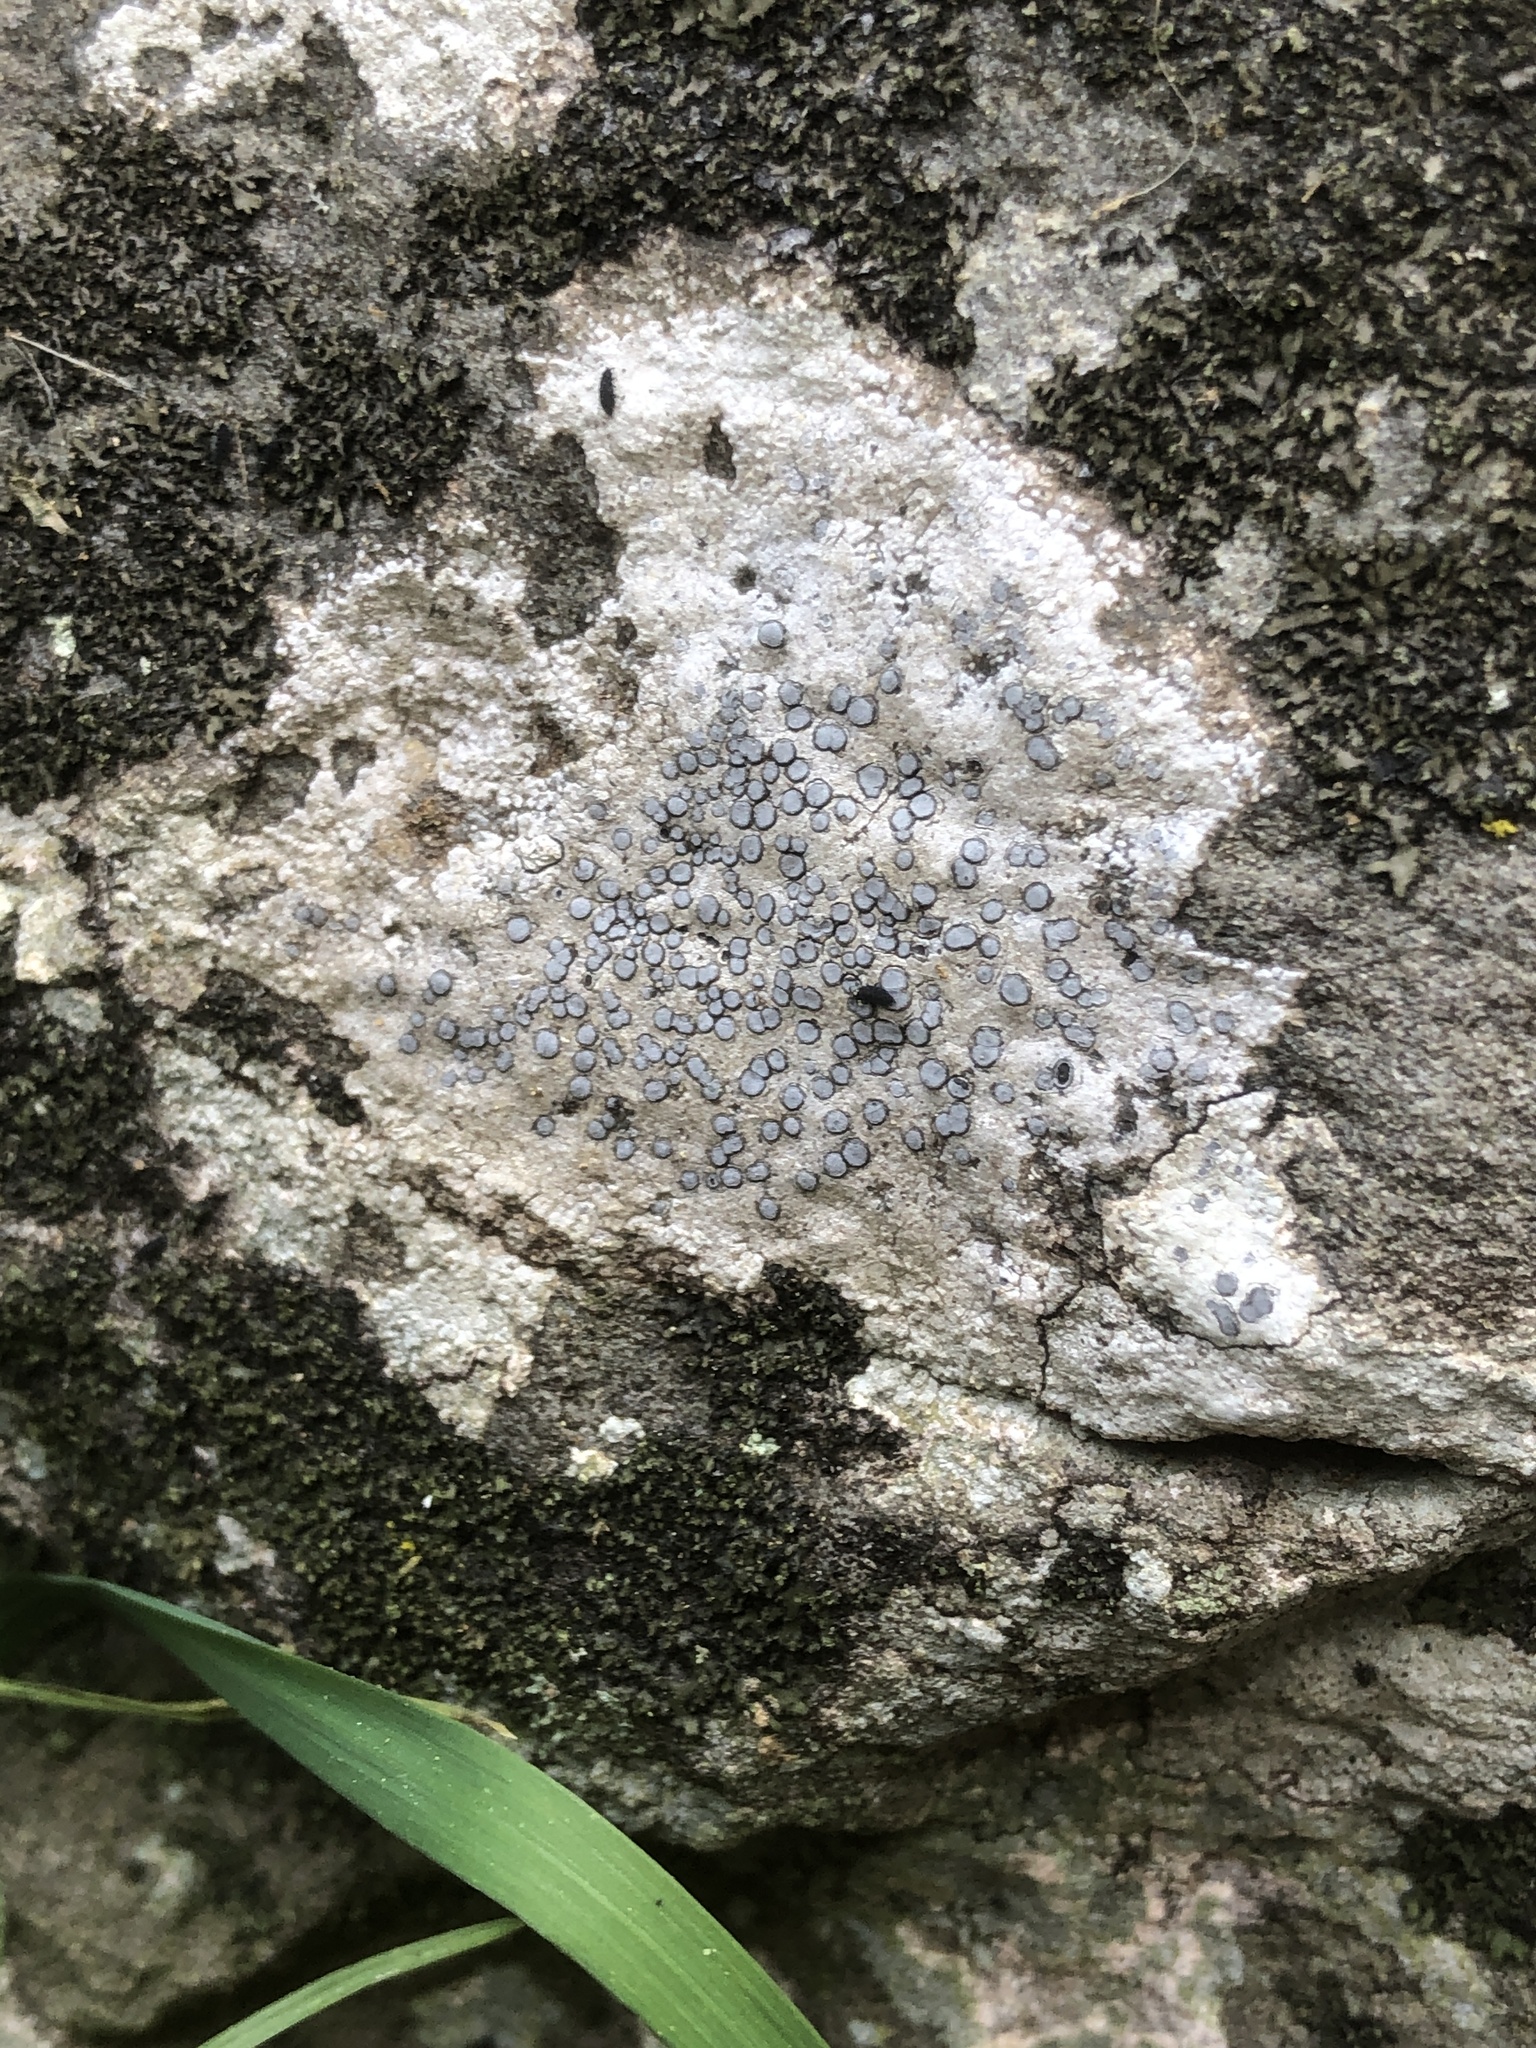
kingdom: Fungi
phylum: Ascomycota
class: Lecanoromycetes
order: Lecideales
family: Lecideaceae
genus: Porpidia
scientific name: Porpidia albocaerulescens
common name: Smokey-eyed boulder lichen
